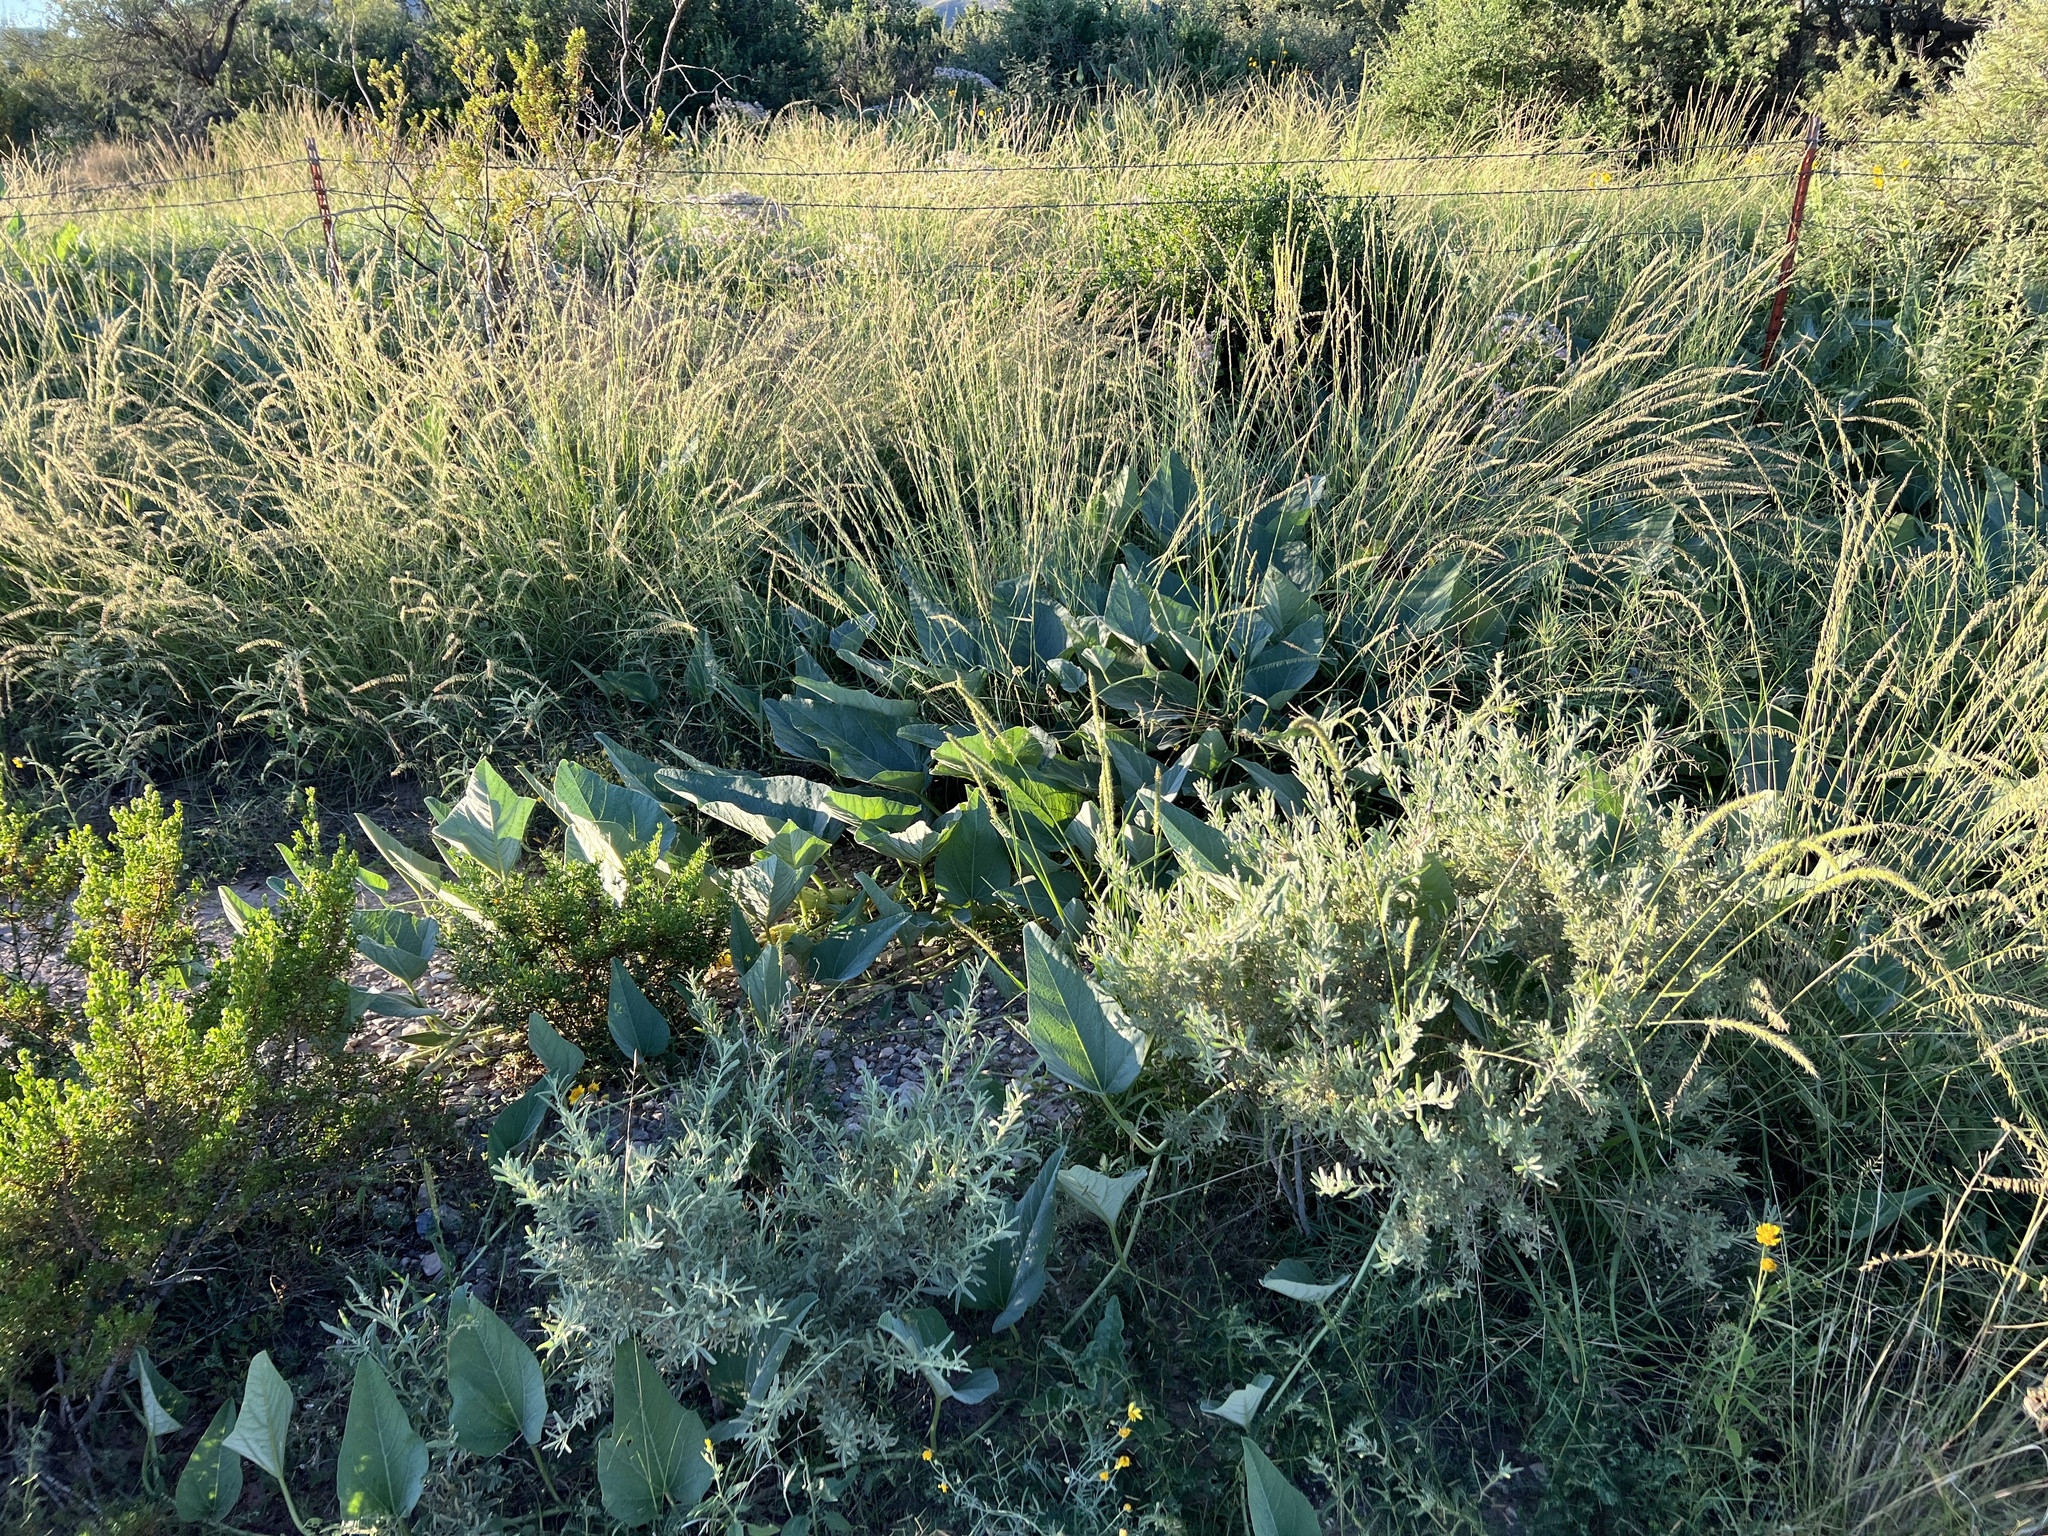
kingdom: Plantae
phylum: Tracheophyta
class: Magnoliopsida
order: Cucurbitales
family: Cucurbitaceae
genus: Cucurbita
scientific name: Cucurbita foetidissima
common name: Buffalo gourd
